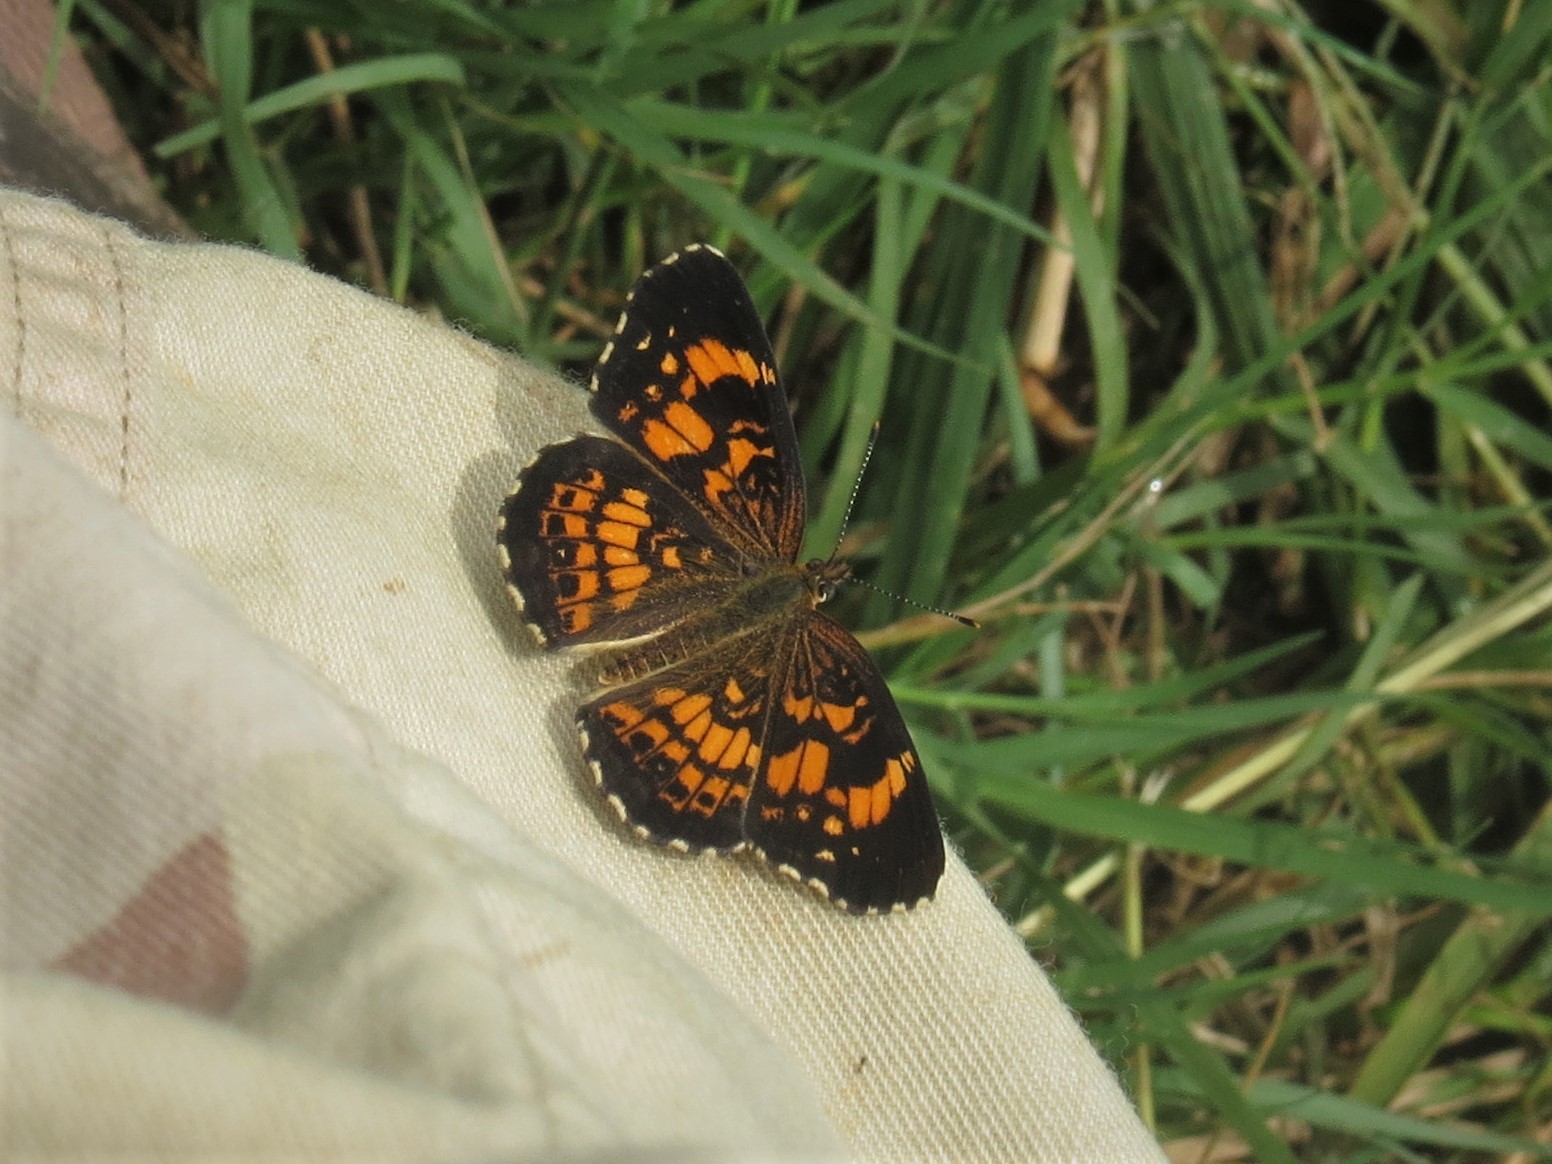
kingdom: Animalia
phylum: Arthropoda
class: Insecta
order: Lepidoptera
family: Nymphalidae
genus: Chlosyne
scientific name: Chlosyne nycteis
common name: Silvery checkerspot
